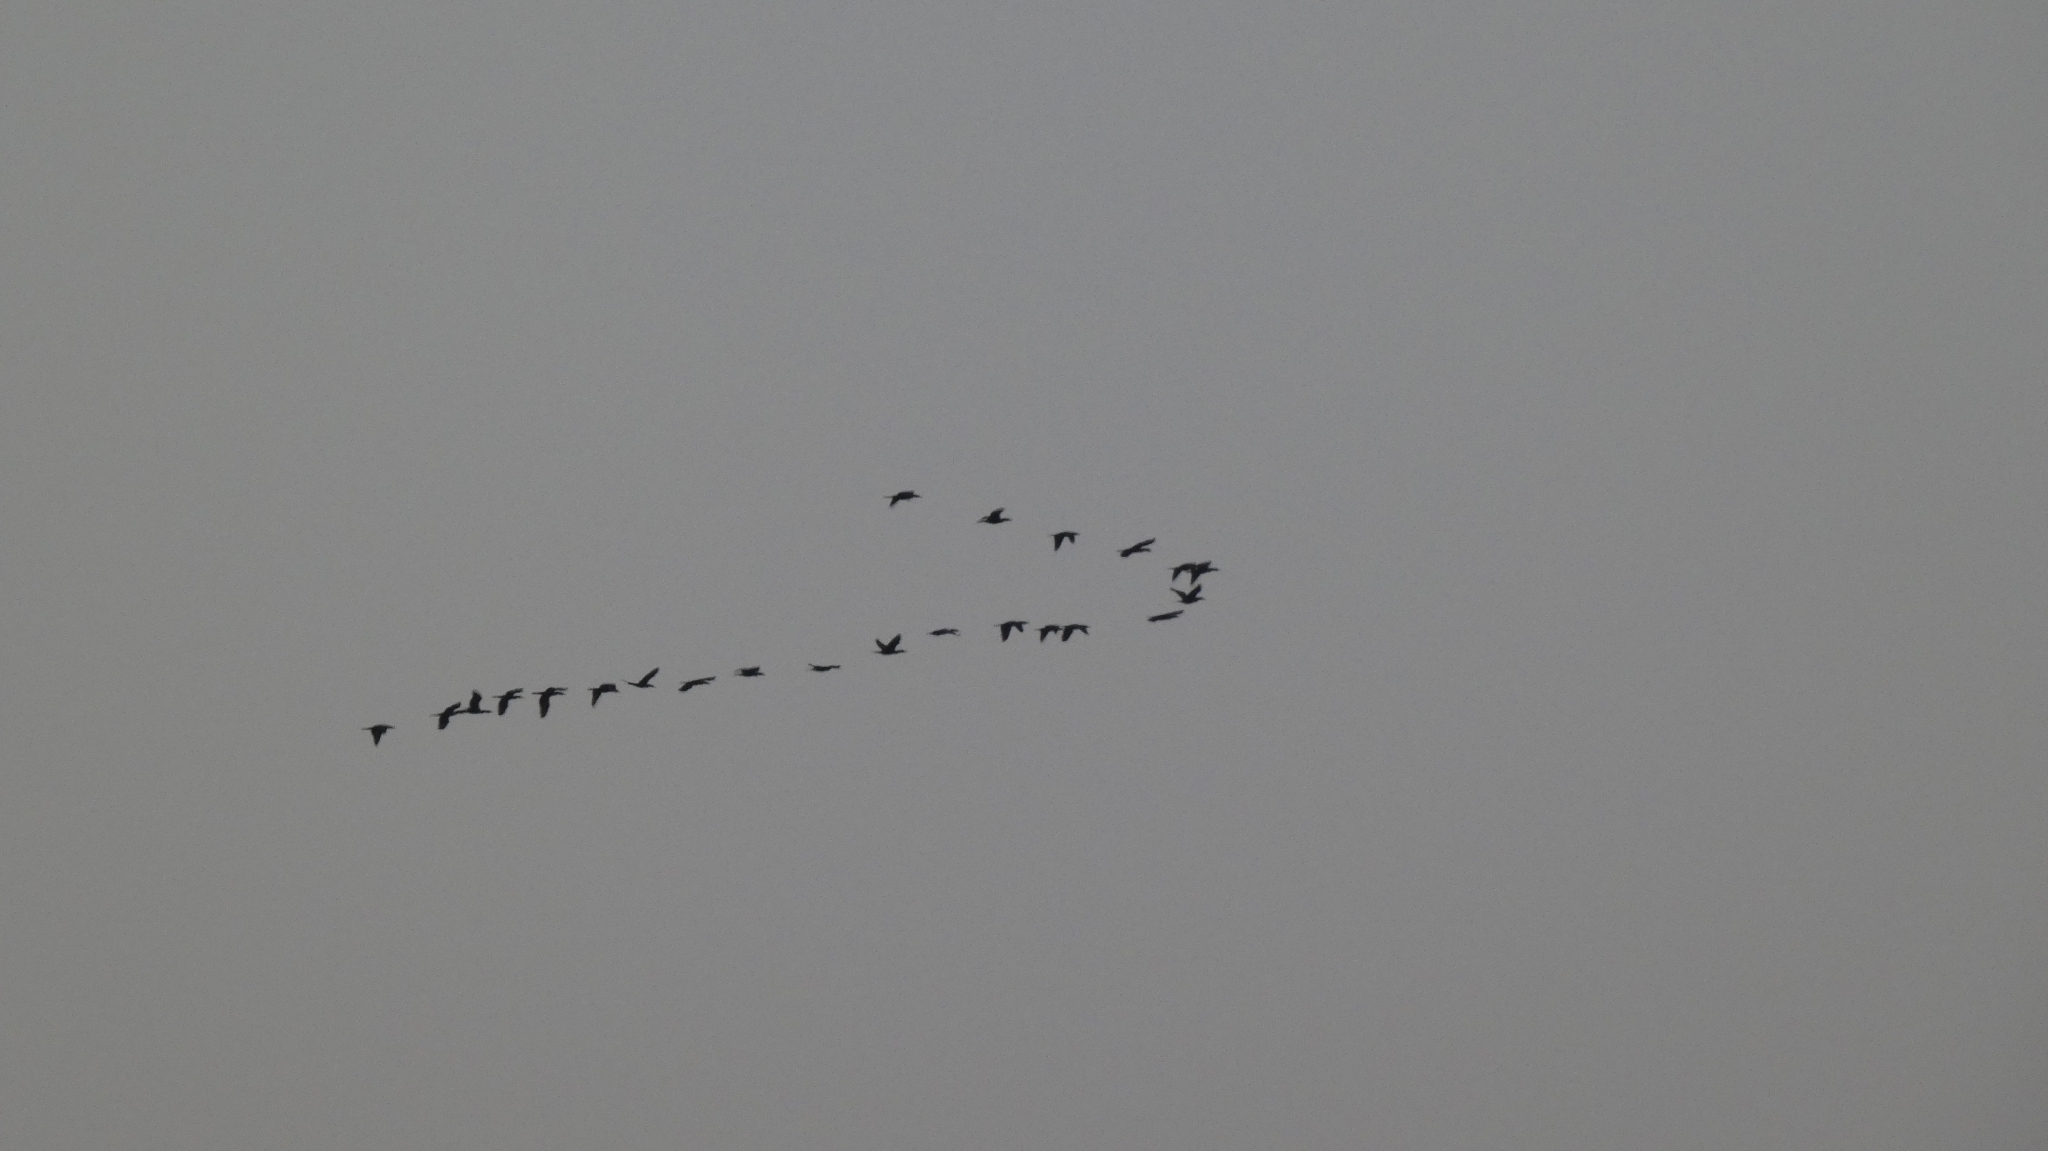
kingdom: Animalia
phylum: Chordata
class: Aves
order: Suliformes
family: Phalacrocoracidae
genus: Phalacrocorax
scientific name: Phalacrocorax brasilianus
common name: Neotropic cormorant
